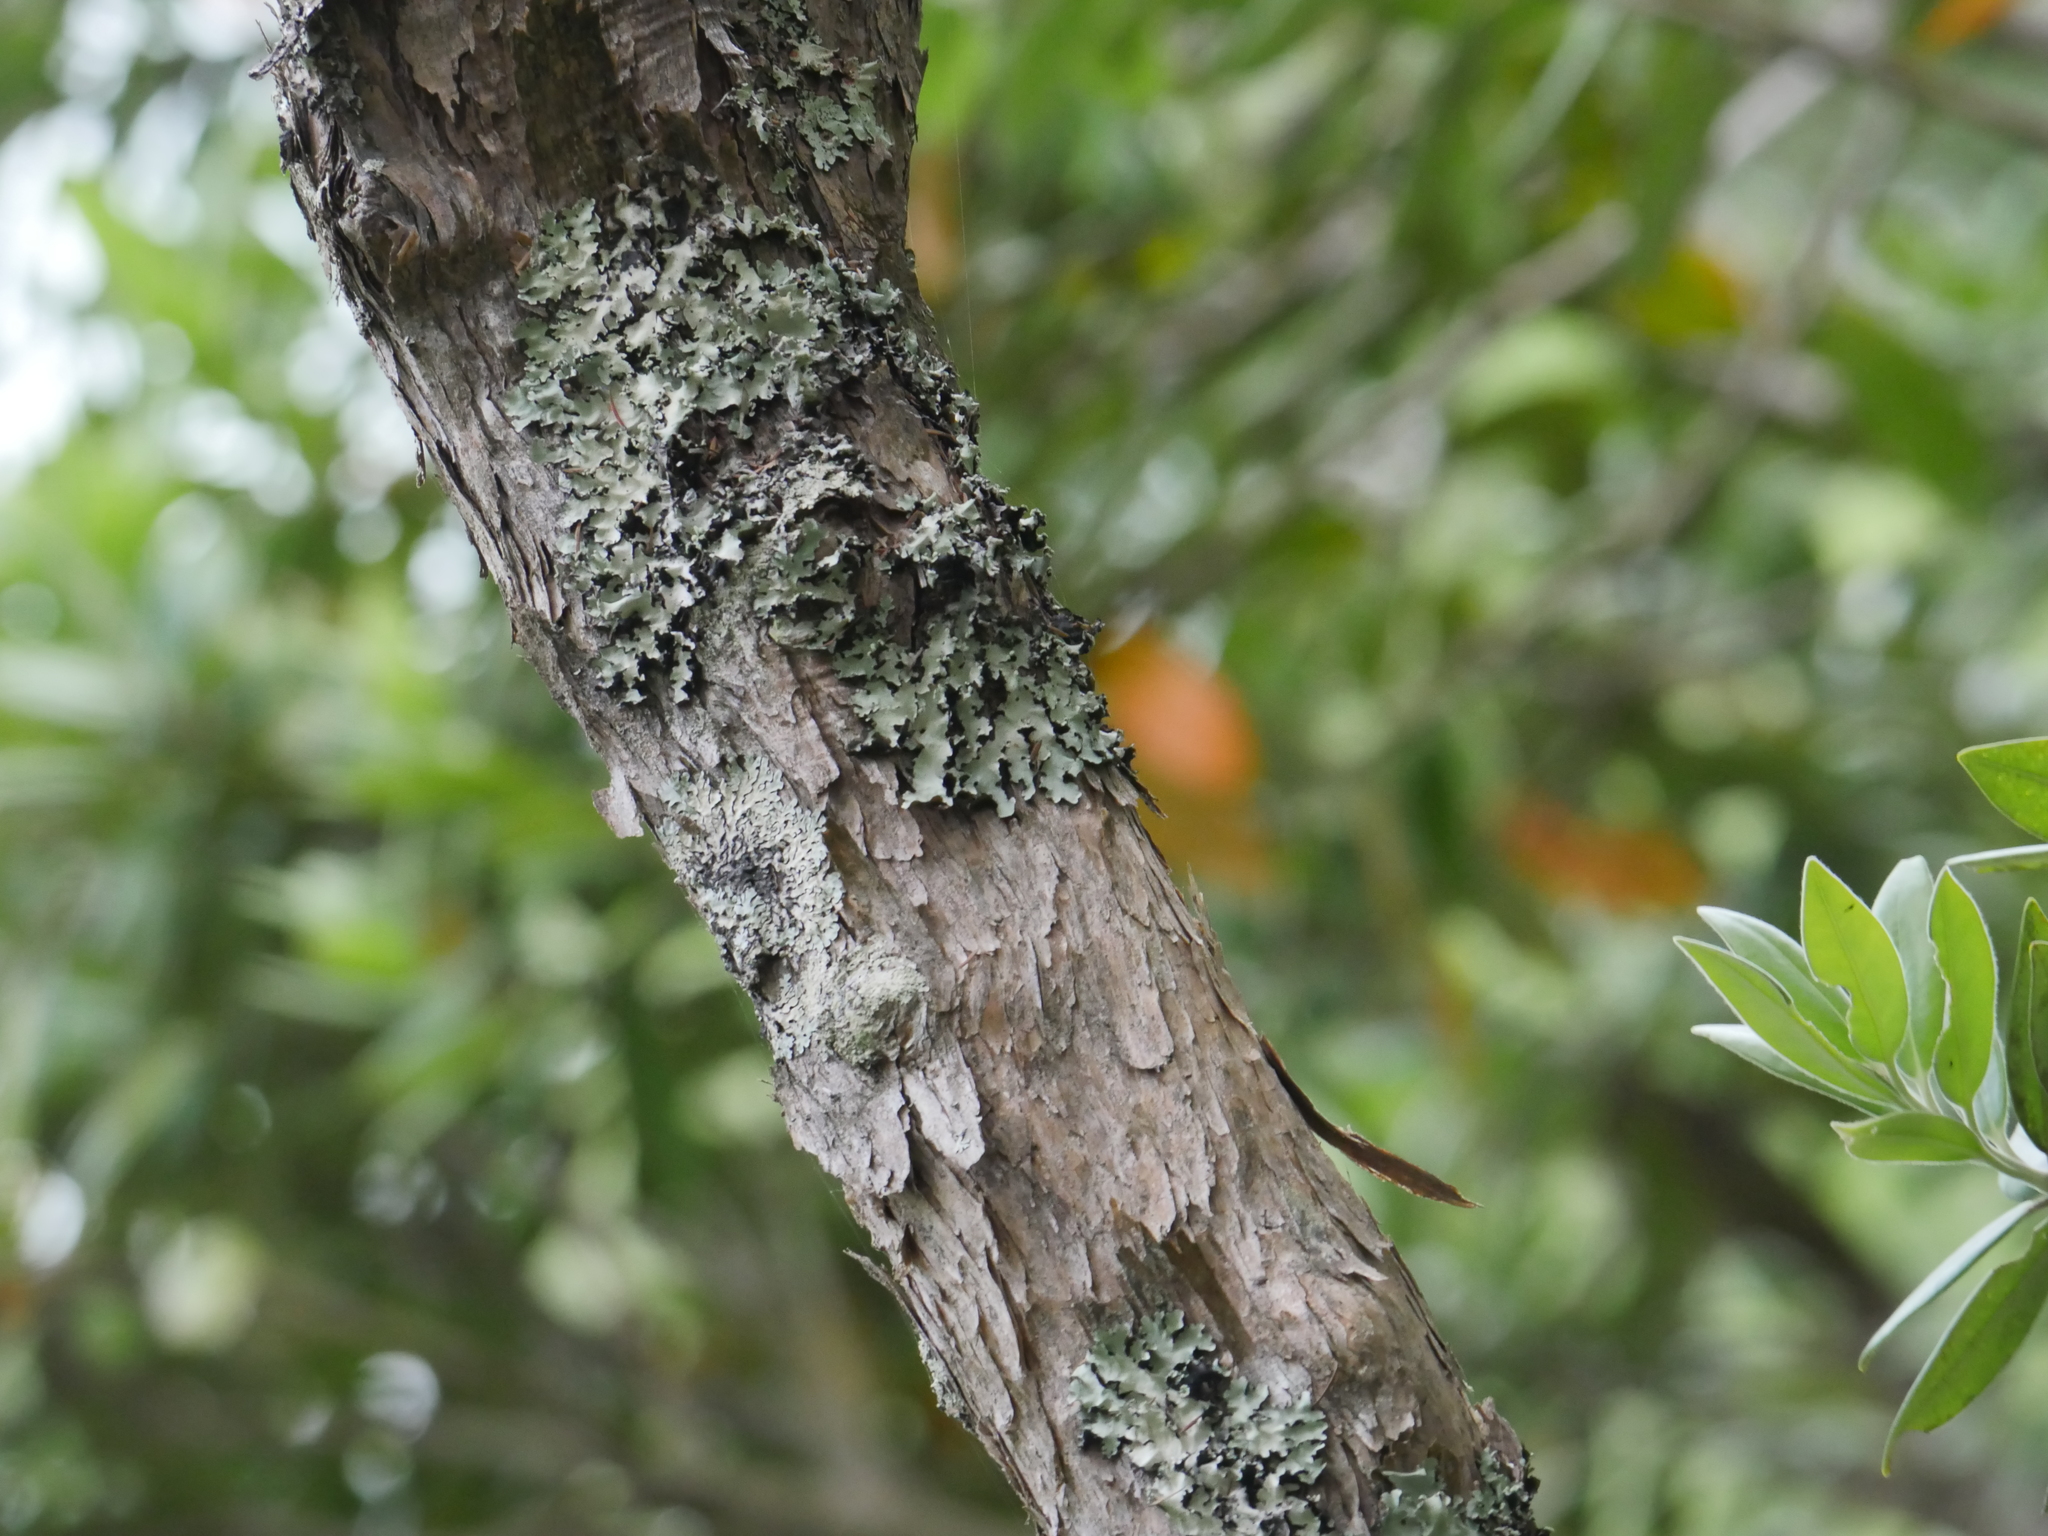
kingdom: Plantae
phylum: Tracheophyta
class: Magnoliopsida
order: Myrtales
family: Myrtaceae
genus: Kunzea
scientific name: Kunzea linearis
